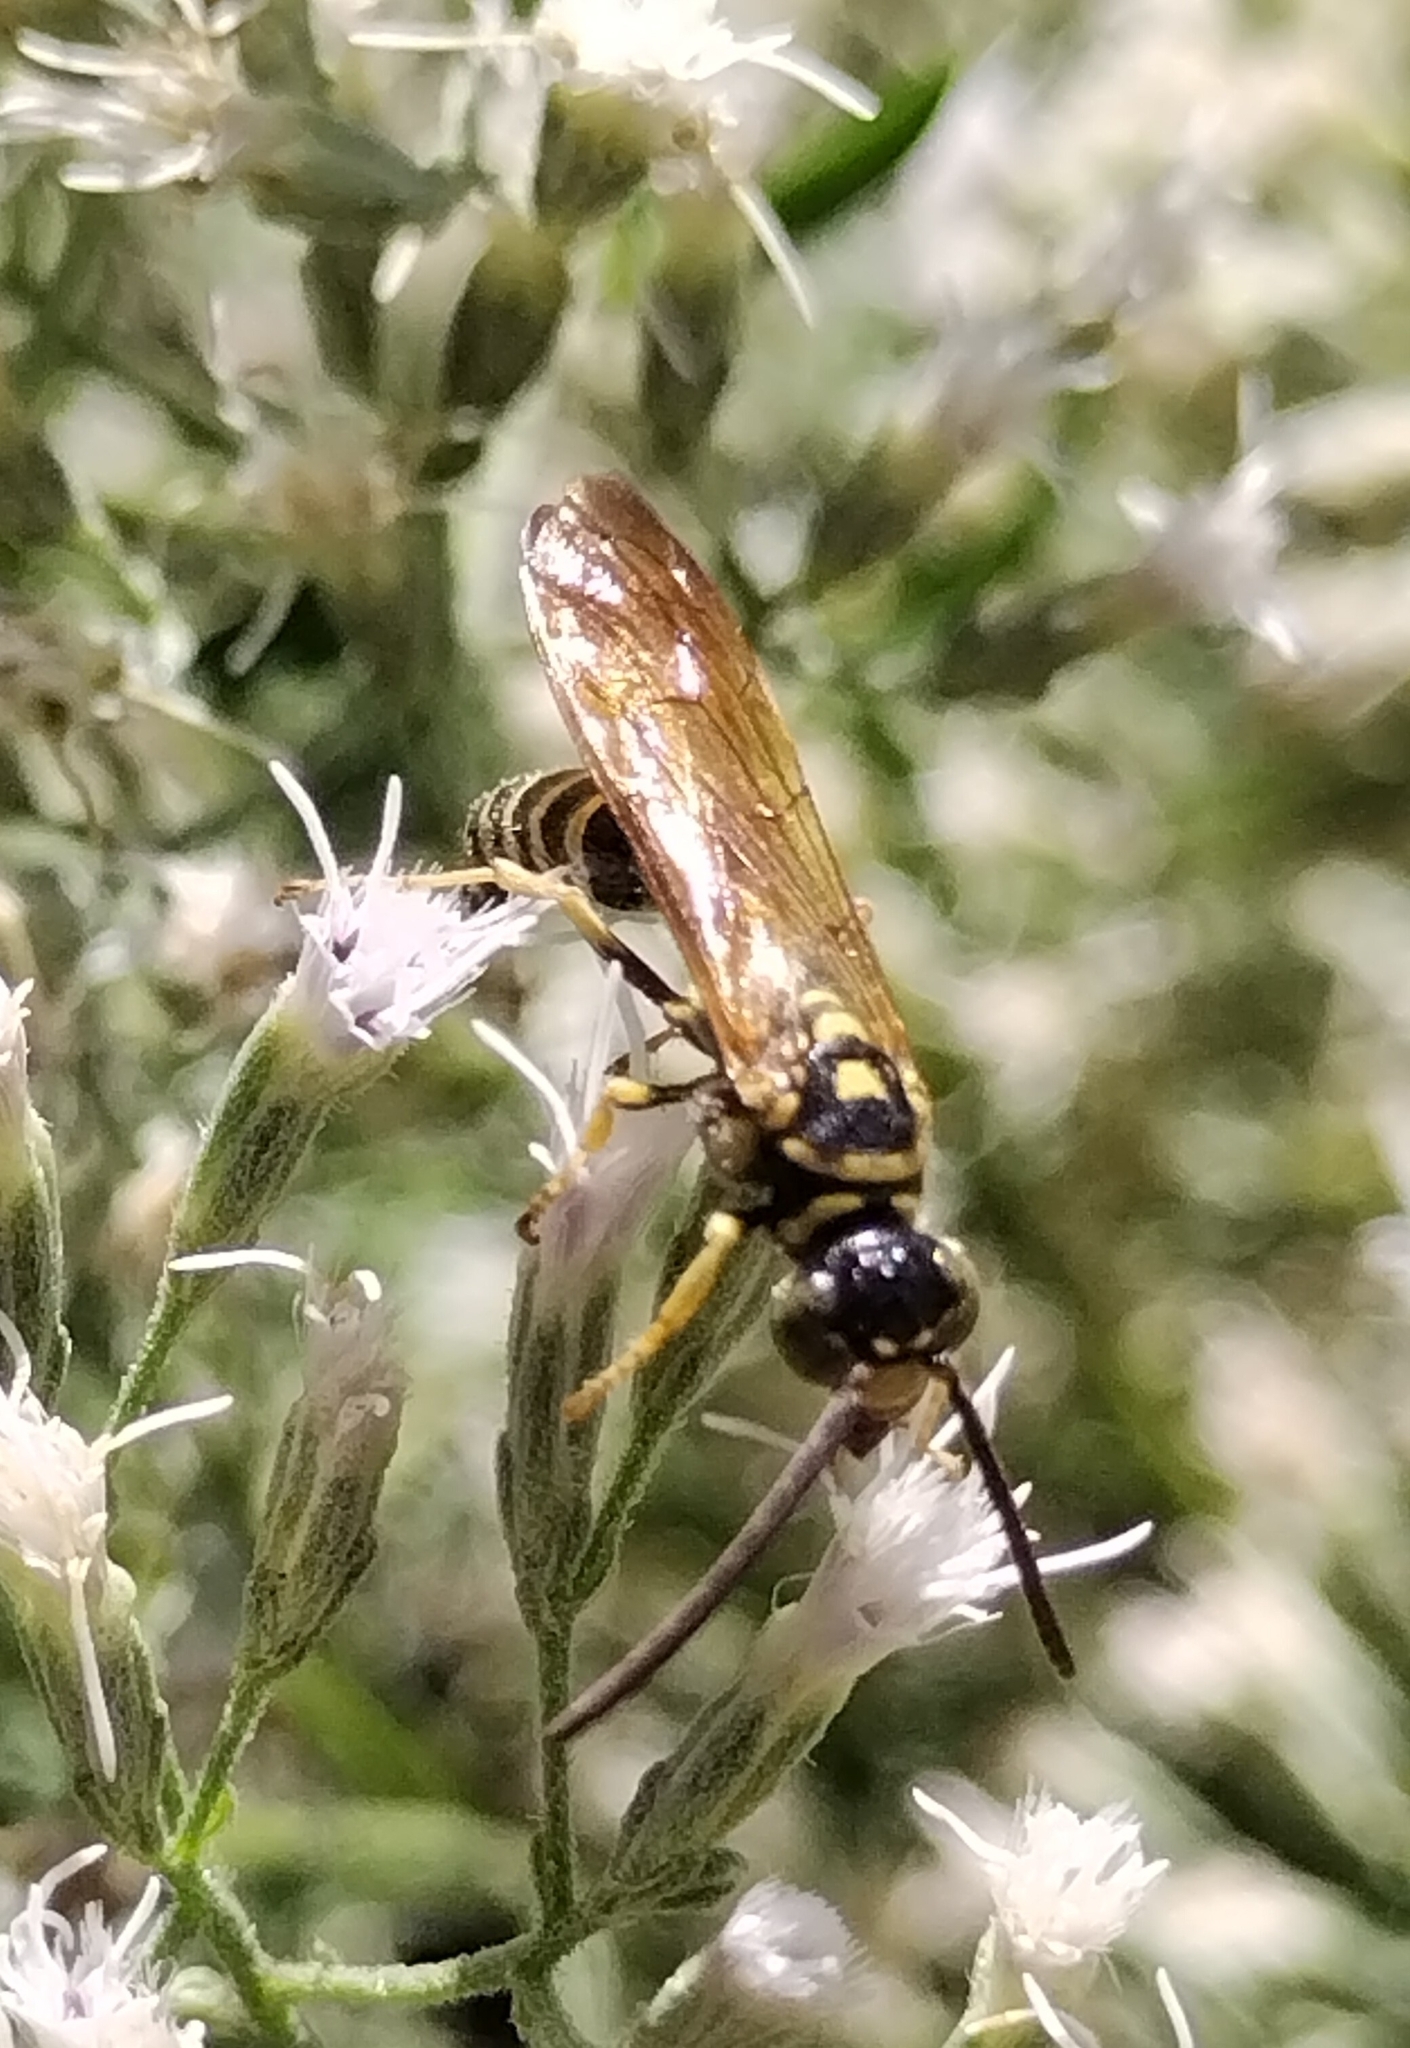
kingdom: Animalia
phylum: Arthropoda
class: Insecta
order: Hymenoptera
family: Tiphiidae
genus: Myzinum
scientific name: Myzinum
